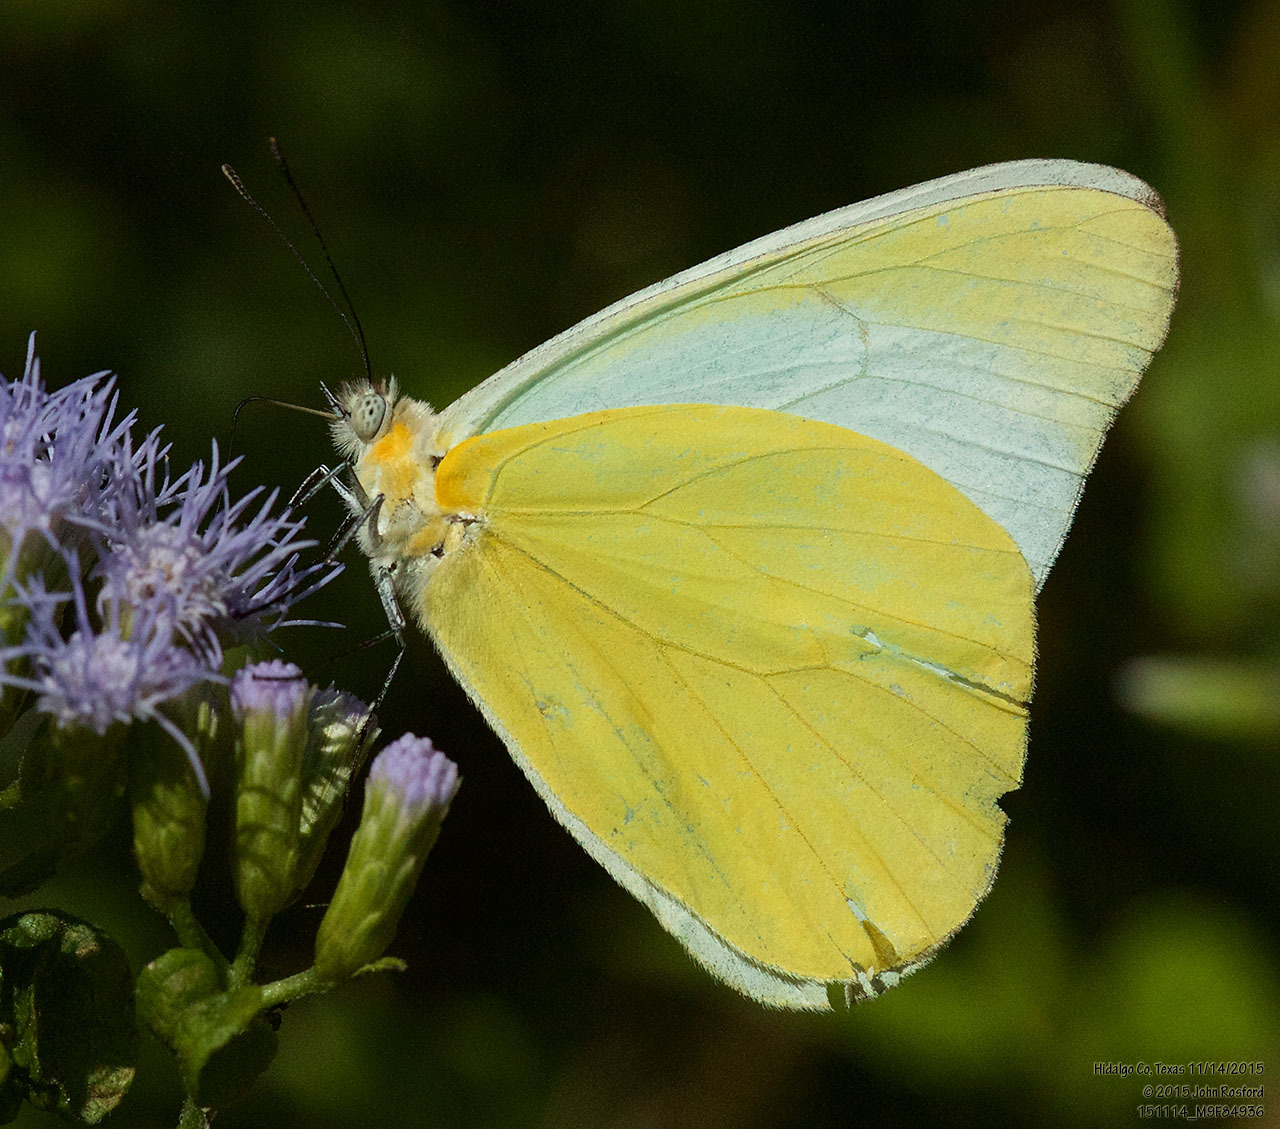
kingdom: Animalia
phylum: Arthropoda
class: Insecta
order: Lepidoptera
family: Pieridae
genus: Melete
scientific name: Melete lycimnia
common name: Common melwhite
